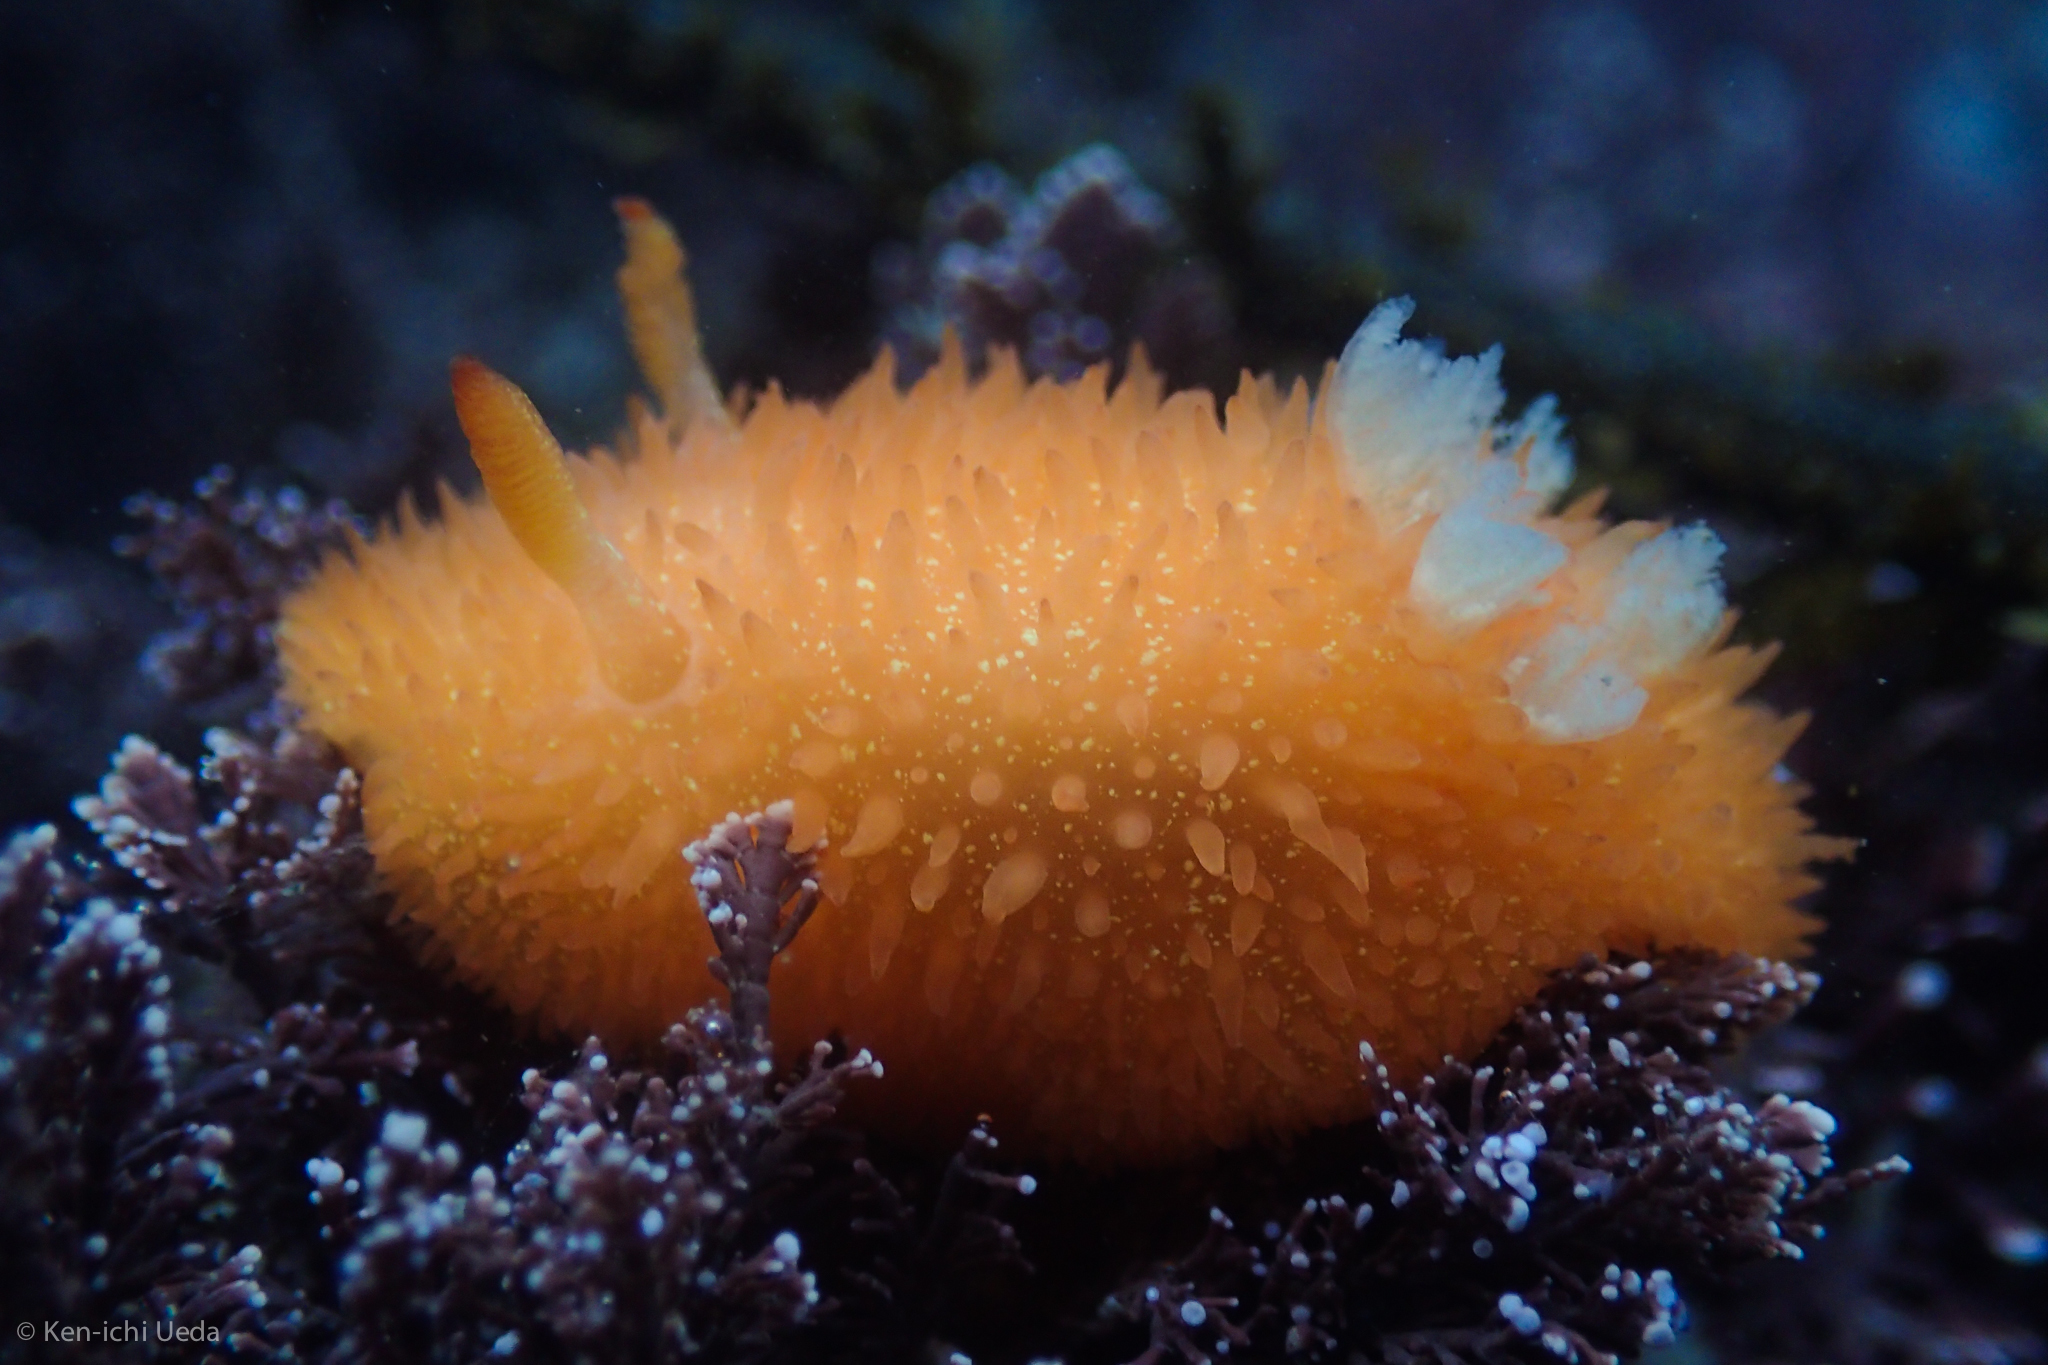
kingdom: Animalia
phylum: Mollusca
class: Gastropoda
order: Nudibranchia
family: Onchidorididae
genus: Acanthodoris
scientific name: Acanthodoris lutea
